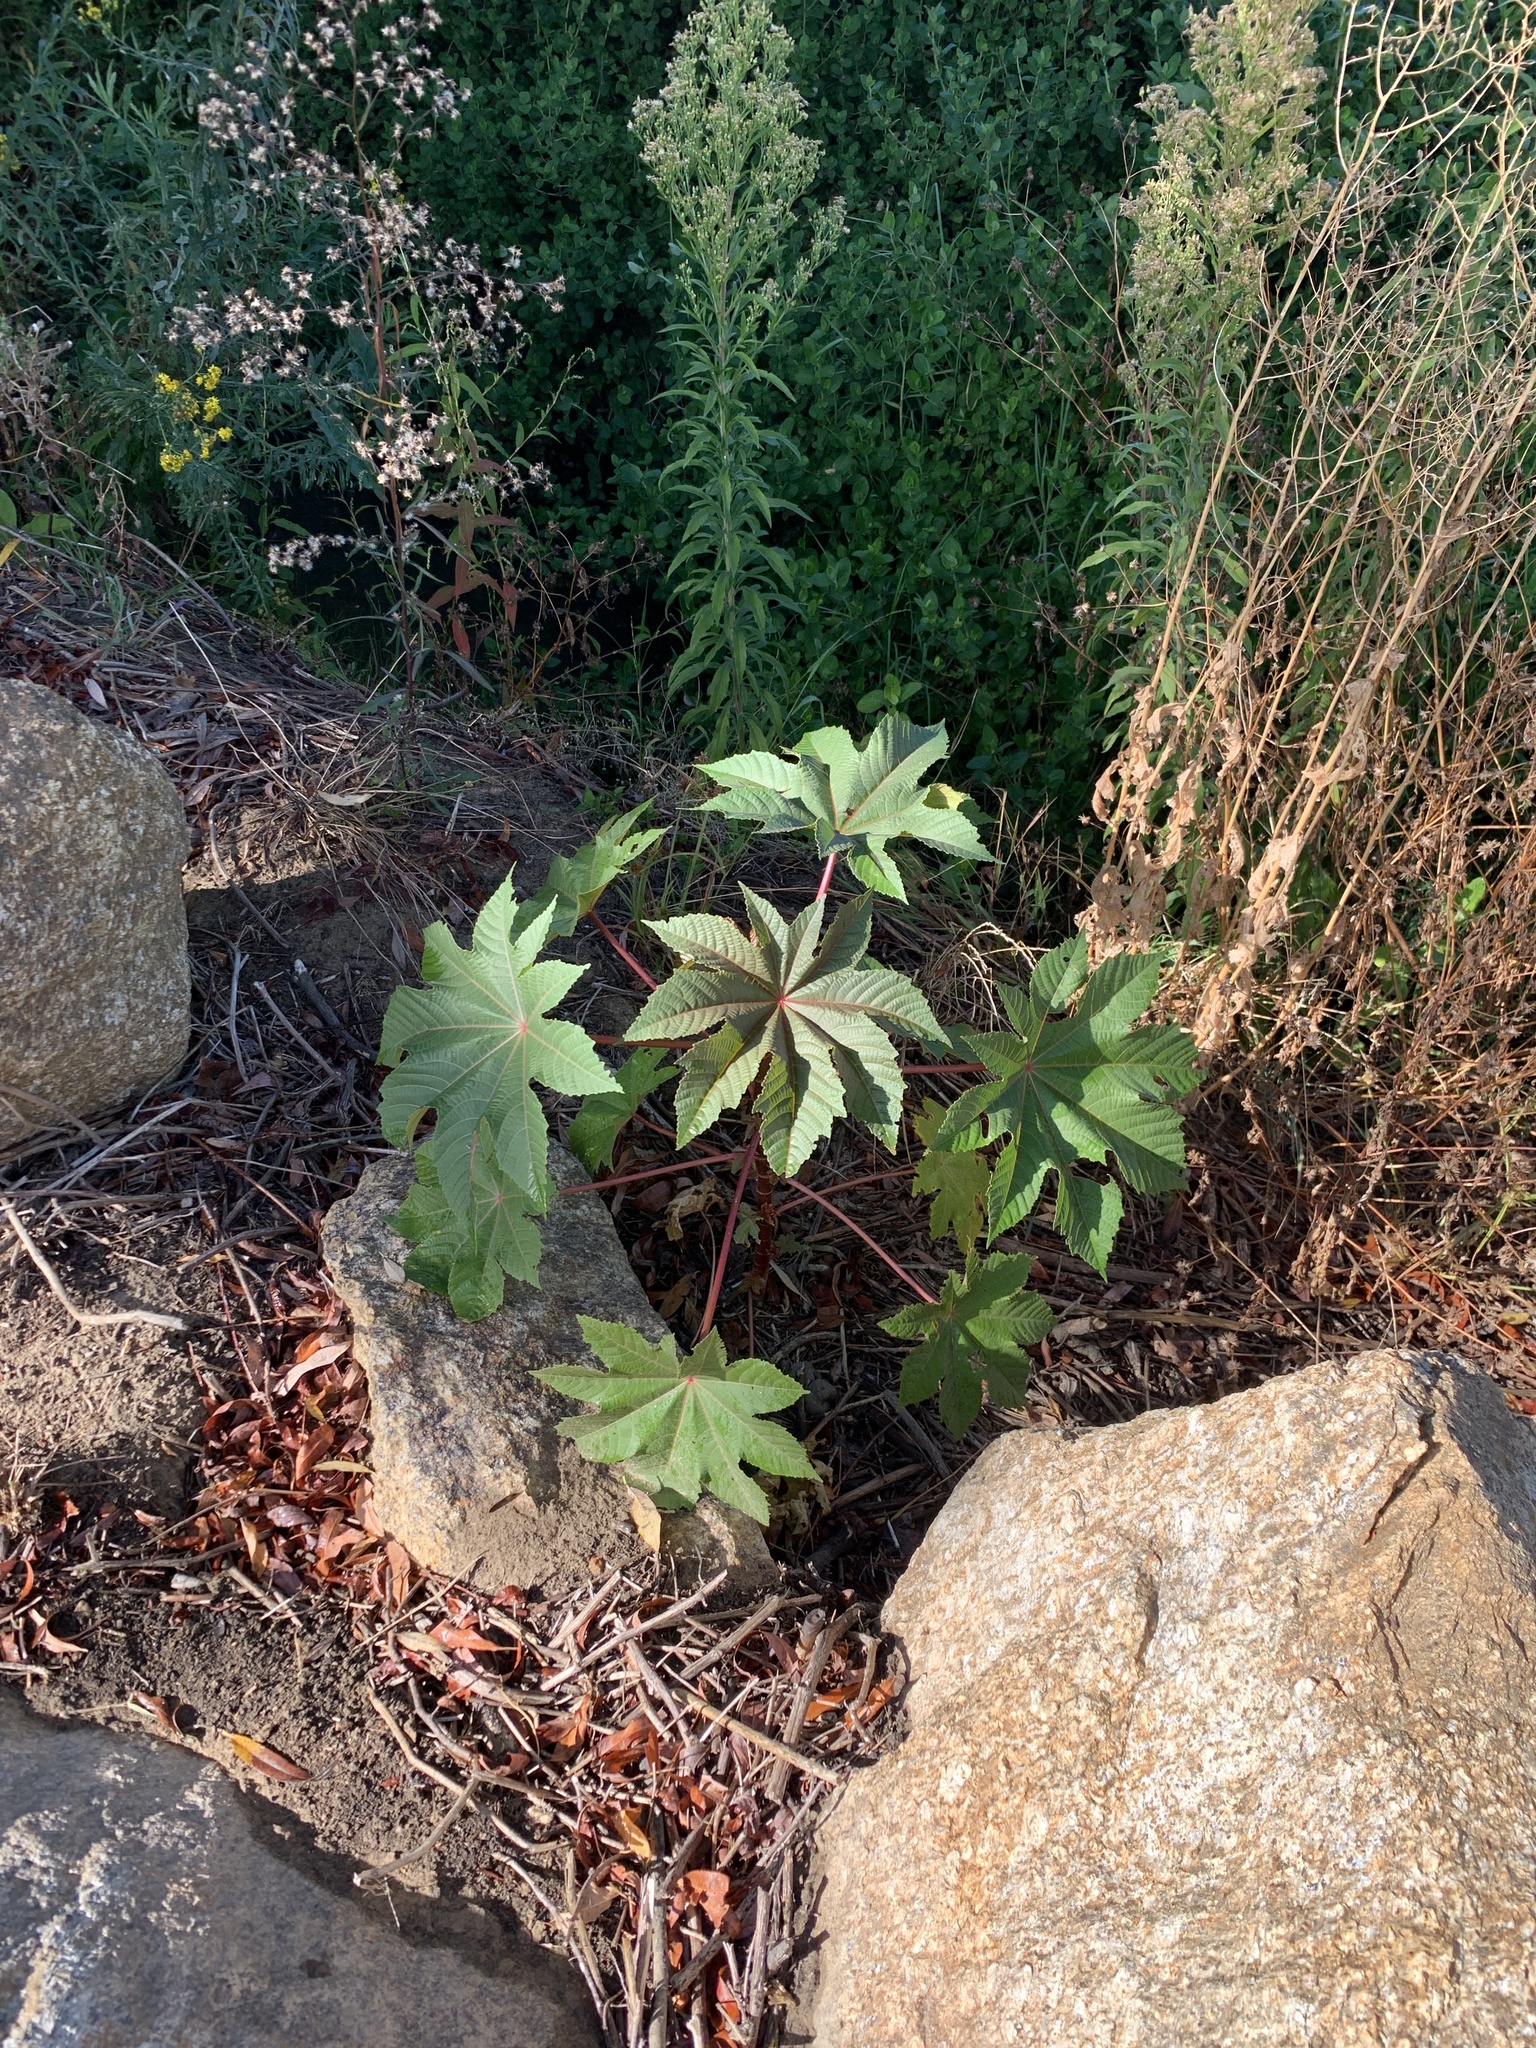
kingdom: Plantae
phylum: Tracheophyta
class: Magnoliopsida
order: Malpighiales
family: Euphorbiaceae
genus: Ricinus
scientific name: Ricinus communis
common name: Castor-oil-plant
